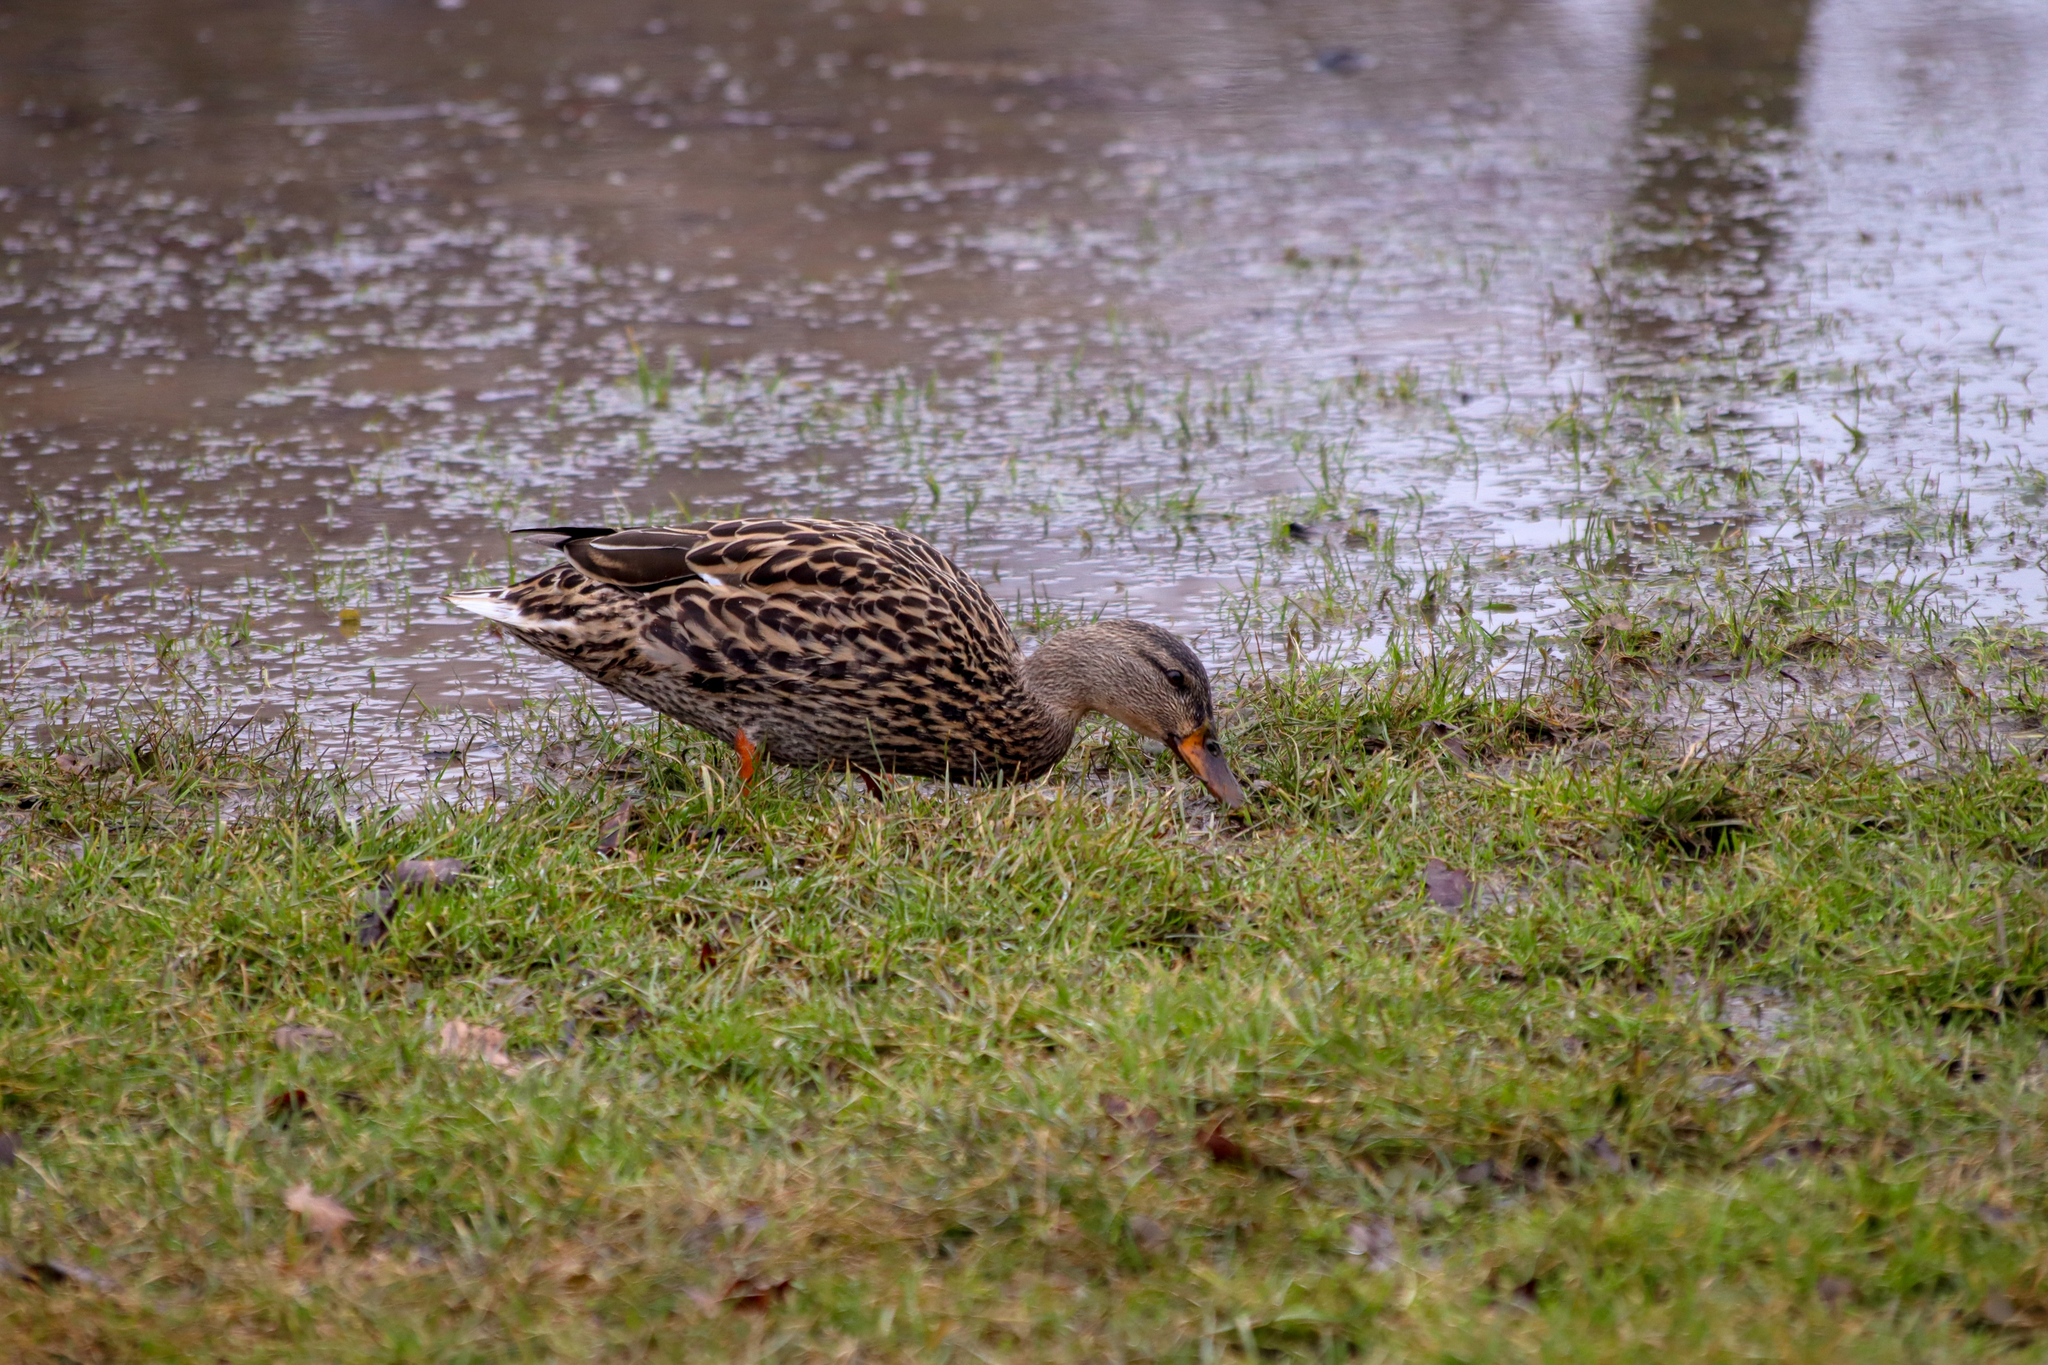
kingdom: Animalia
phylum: Chordata
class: Aves
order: Anseriformes
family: Anatidae
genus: Anas
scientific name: Anas platyrhynchos
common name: Mallard
